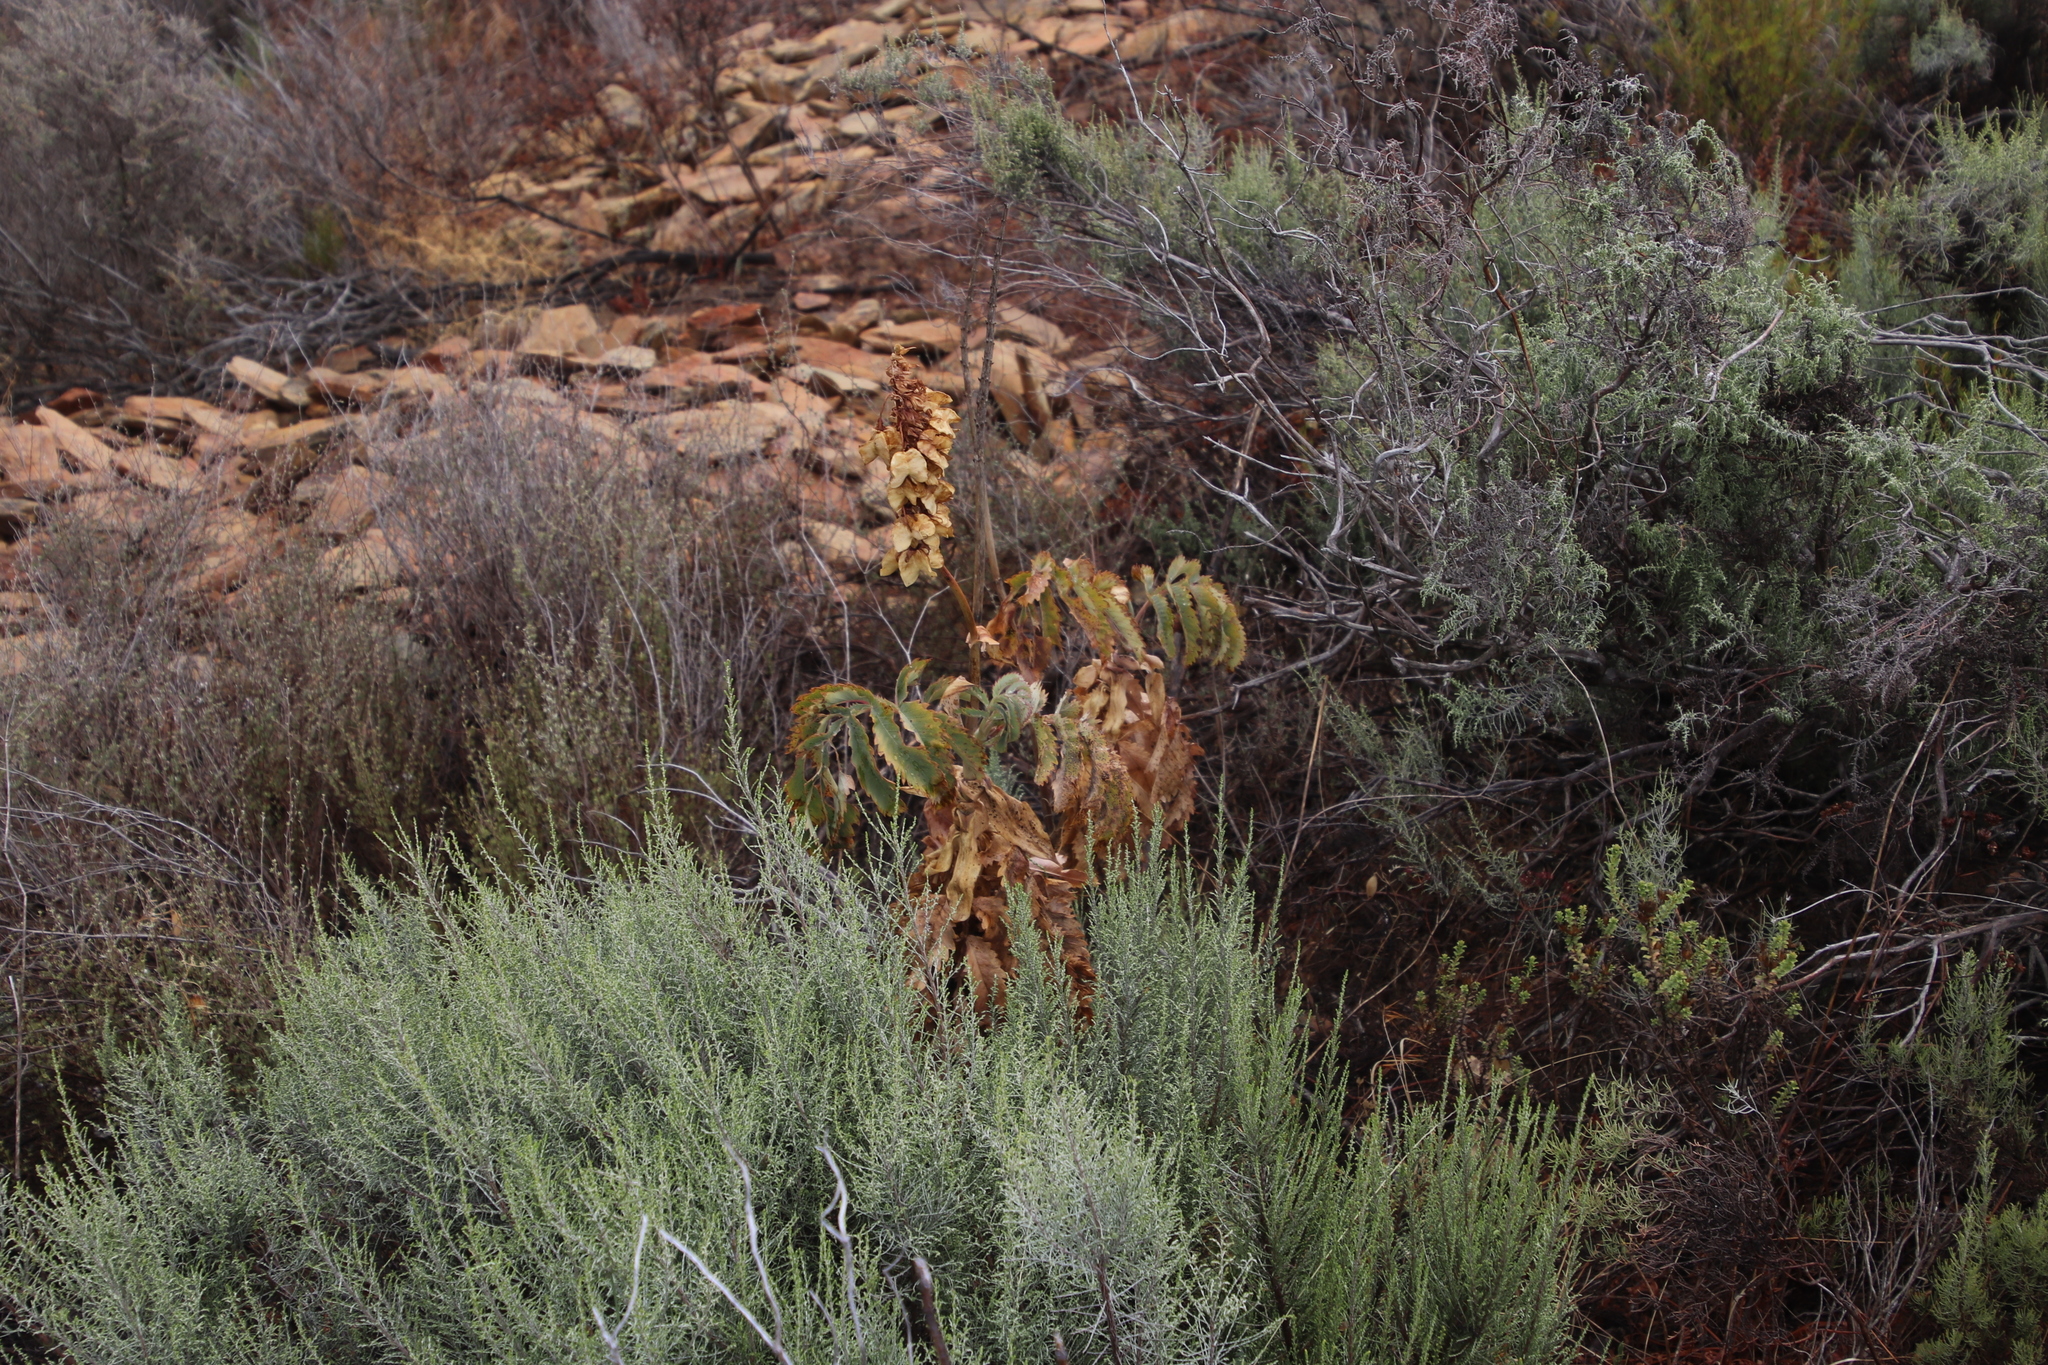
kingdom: Plantae
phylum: Tracheophyta
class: Magnoliopsida
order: Geraniales
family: Melianthaceae
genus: Melianthus
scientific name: Melianthus major
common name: Honey-flower
